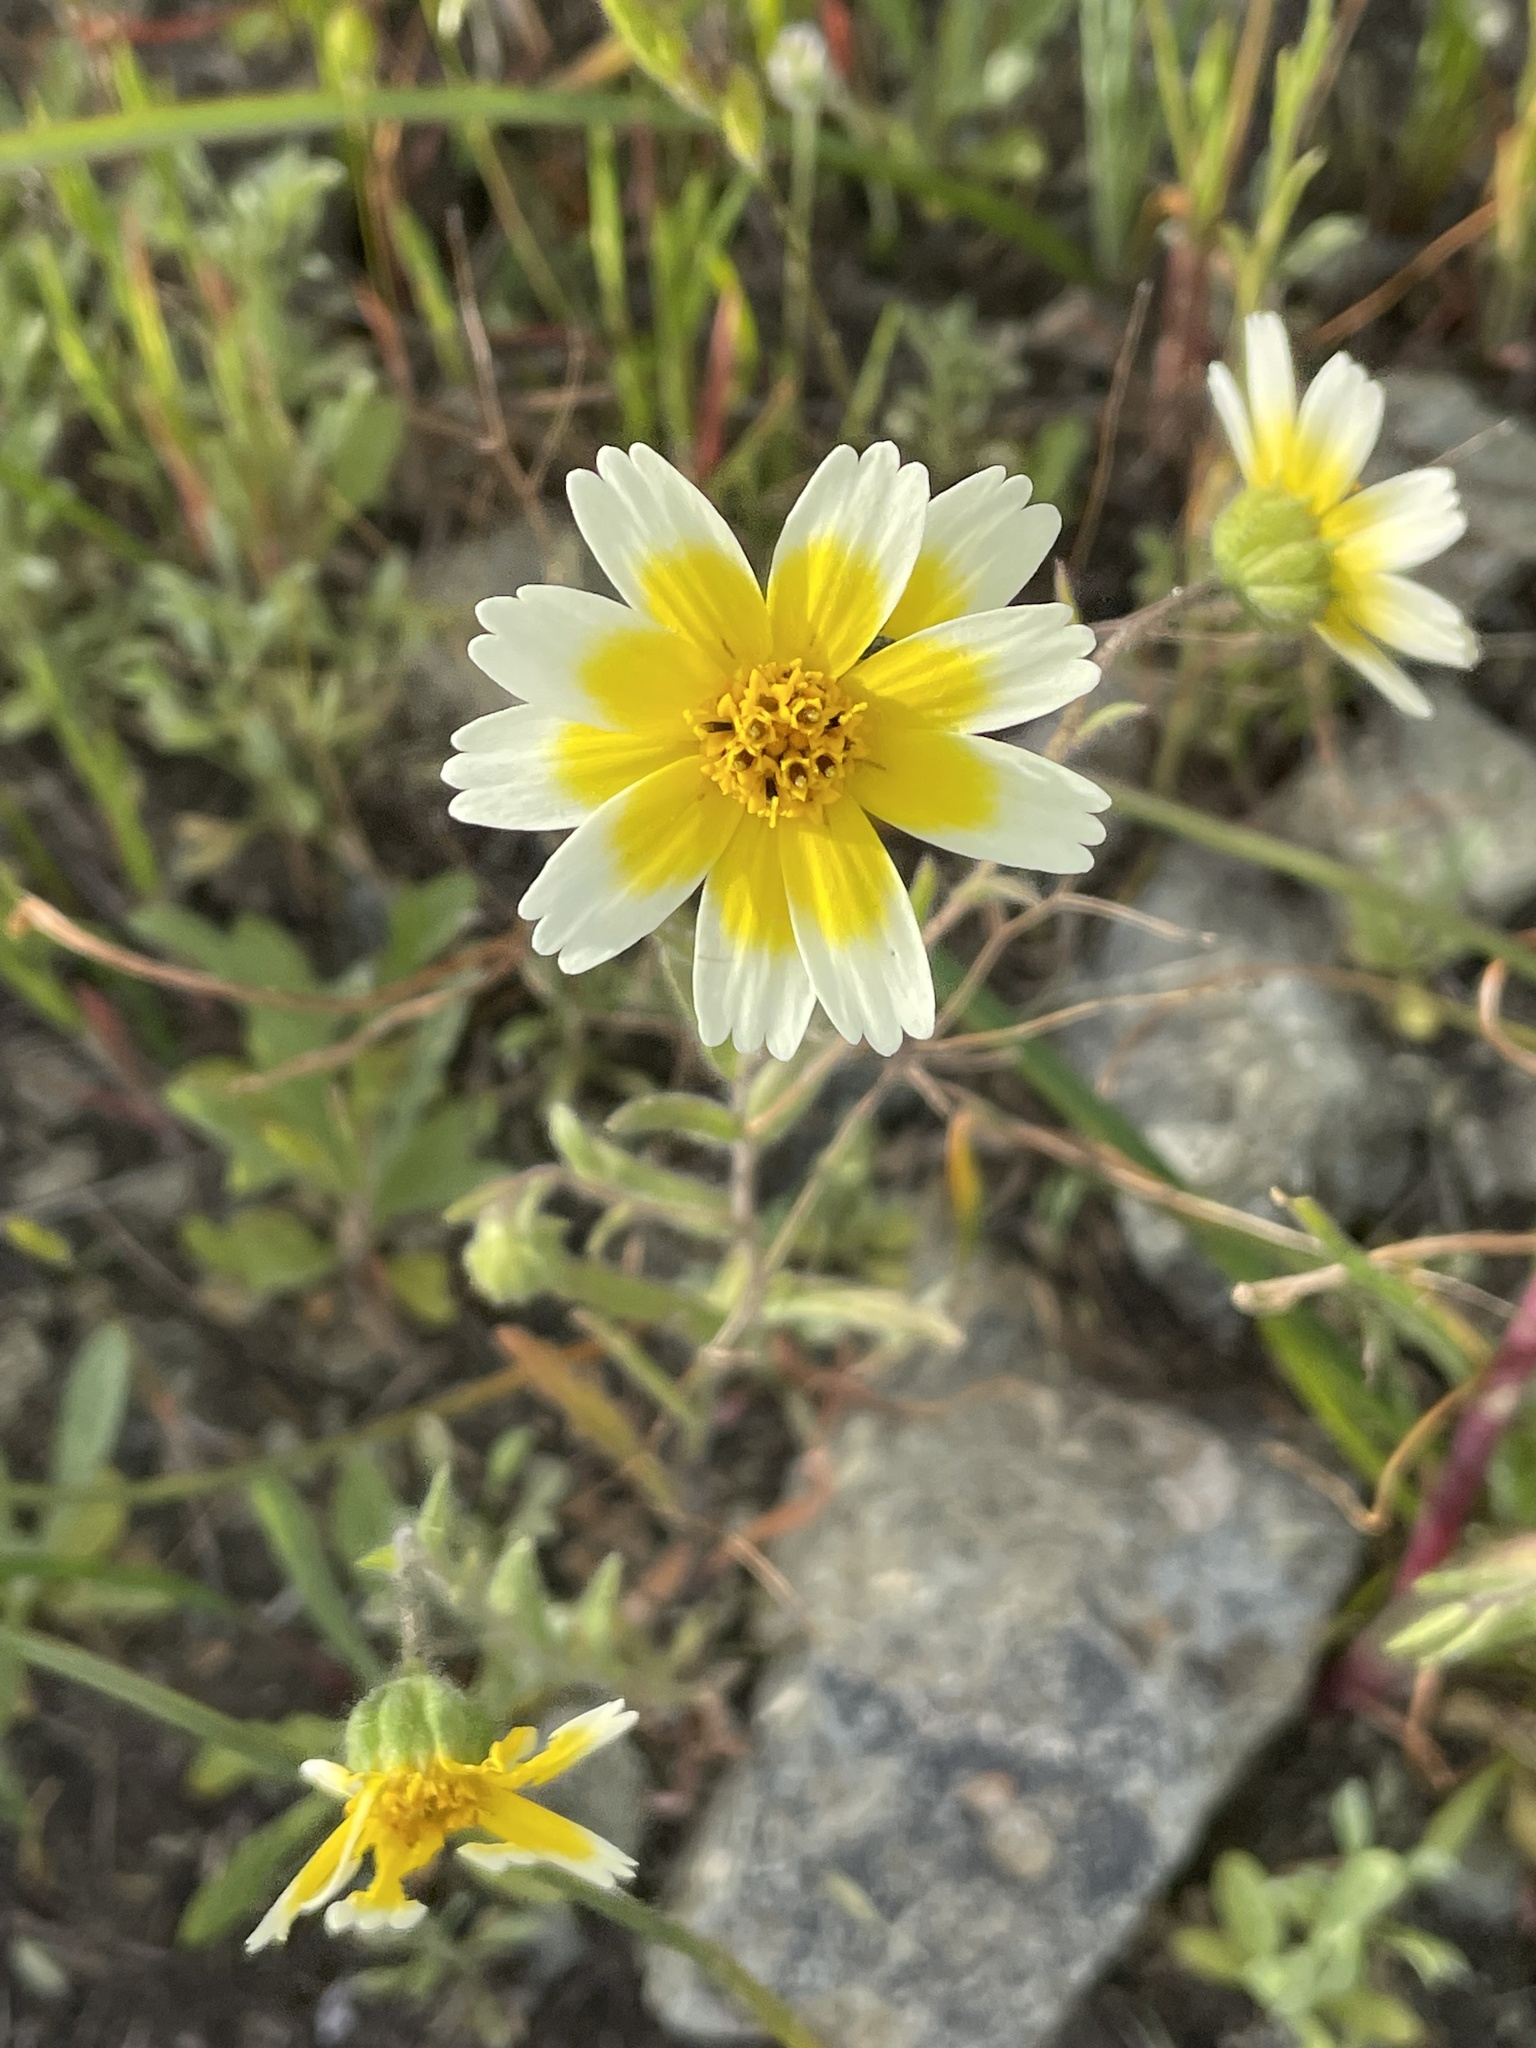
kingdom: Plantae
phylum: Tracheophyta
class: Magnoliopsida
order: Asterales
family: Asteraceae
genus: Layia
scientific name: Layia gaillardioides
